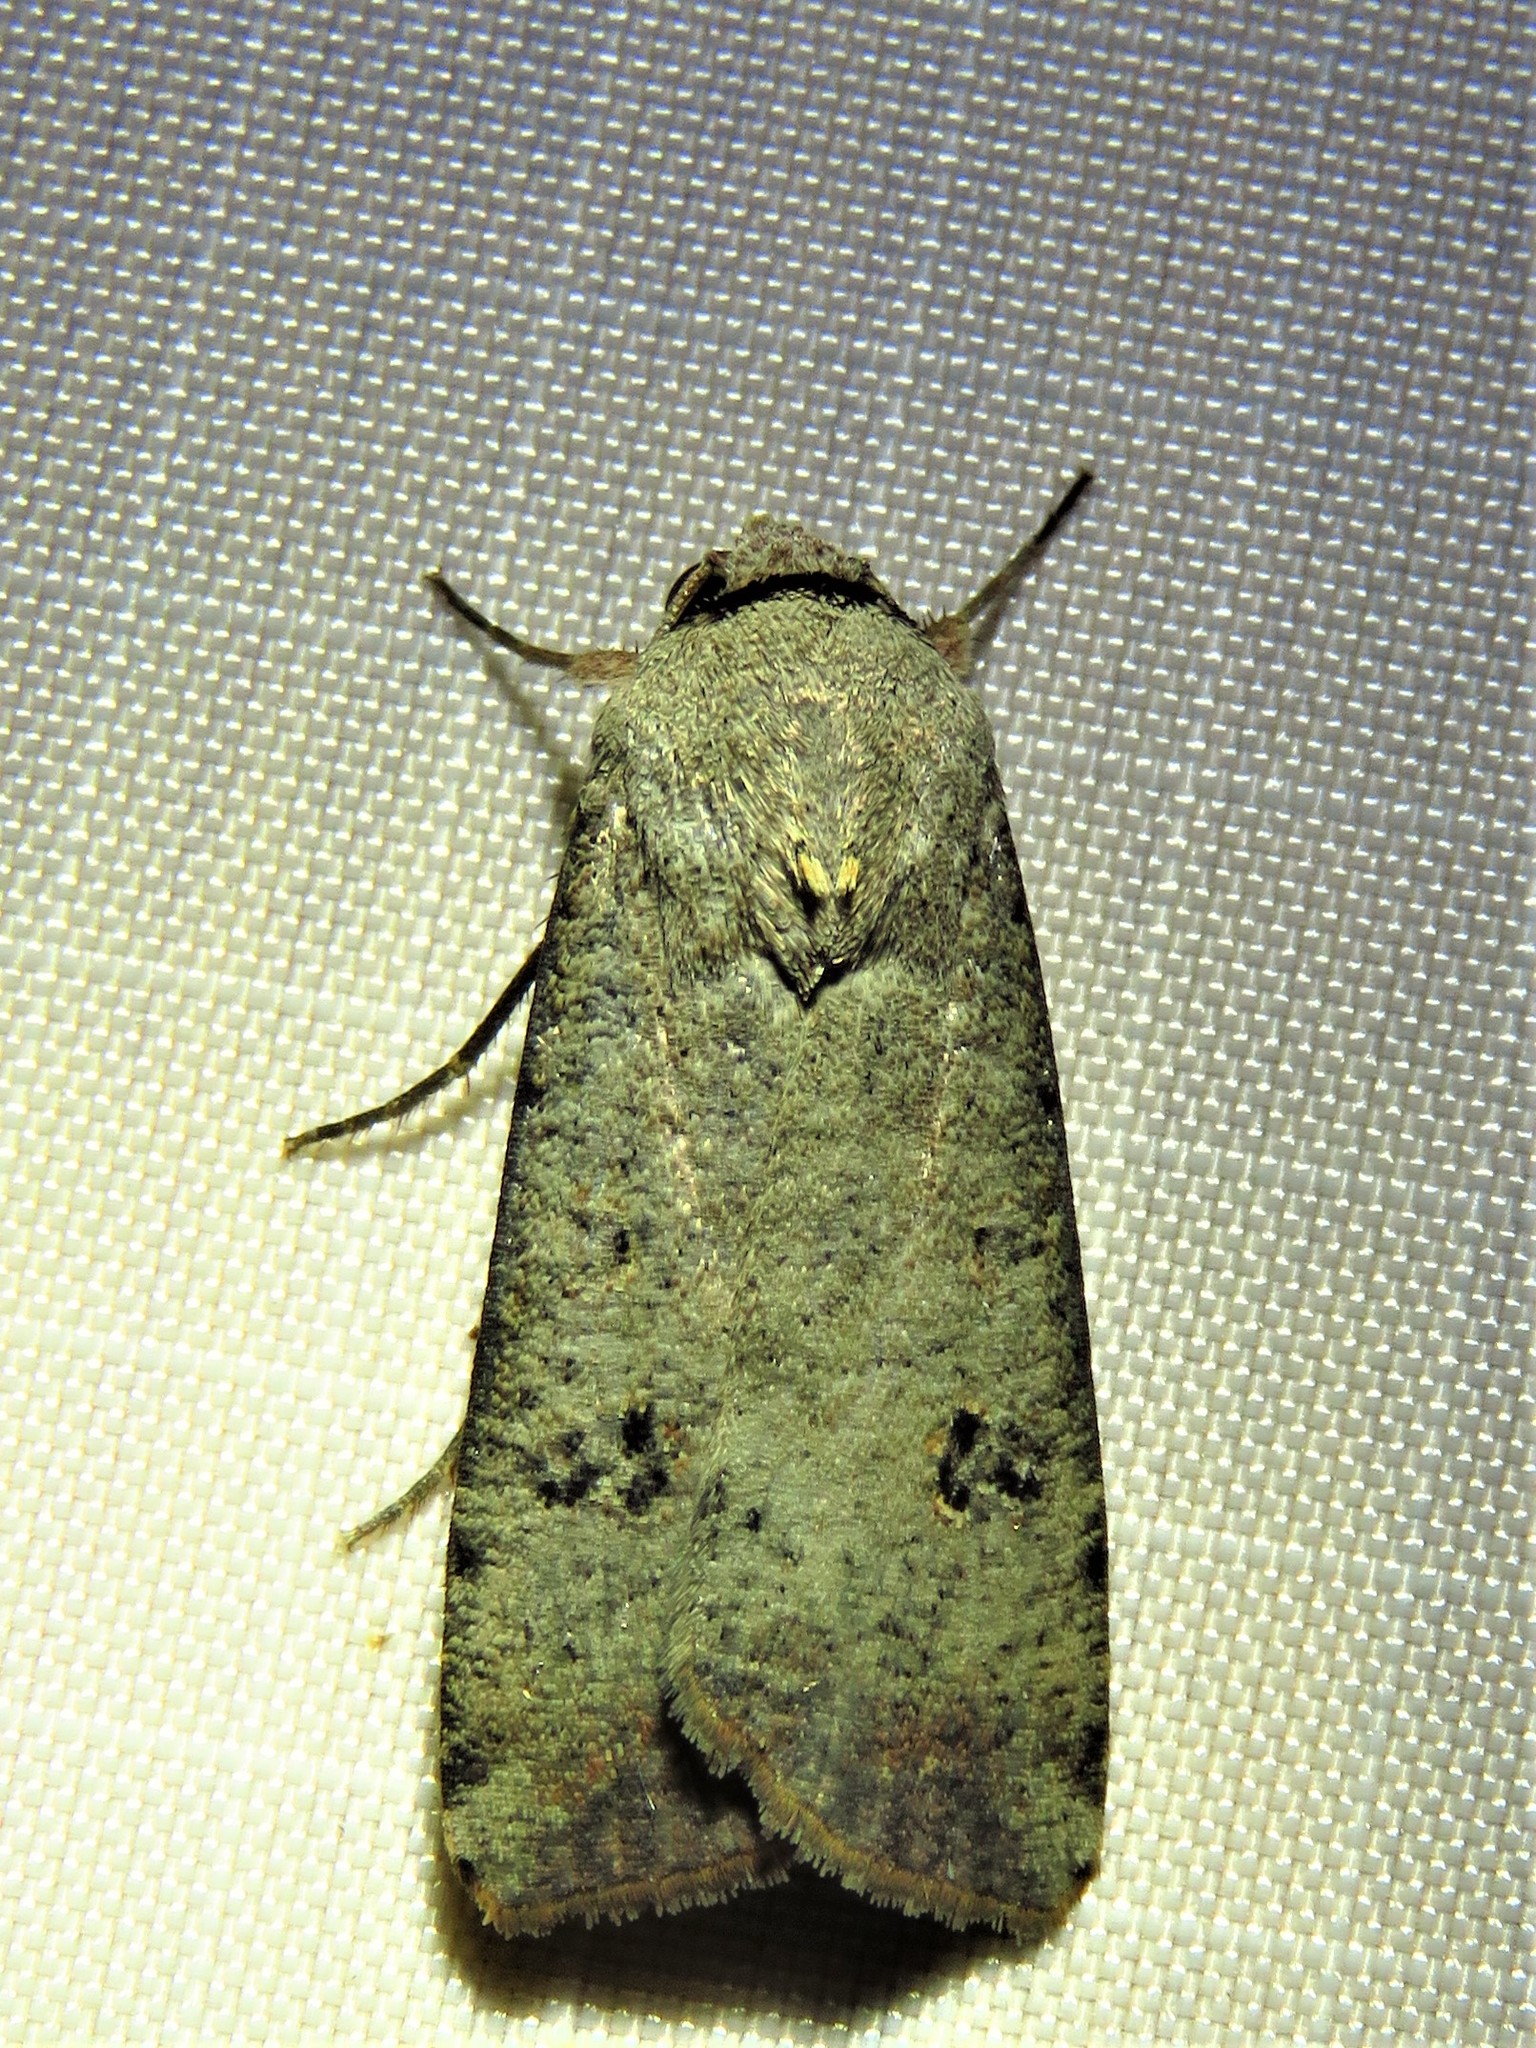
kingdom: Animalia
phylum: Arthropoda
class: Insecta
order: Lepidoptera
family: Noctuidae
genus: Anicla
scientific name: Anicla infecta
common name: Green cutworm
